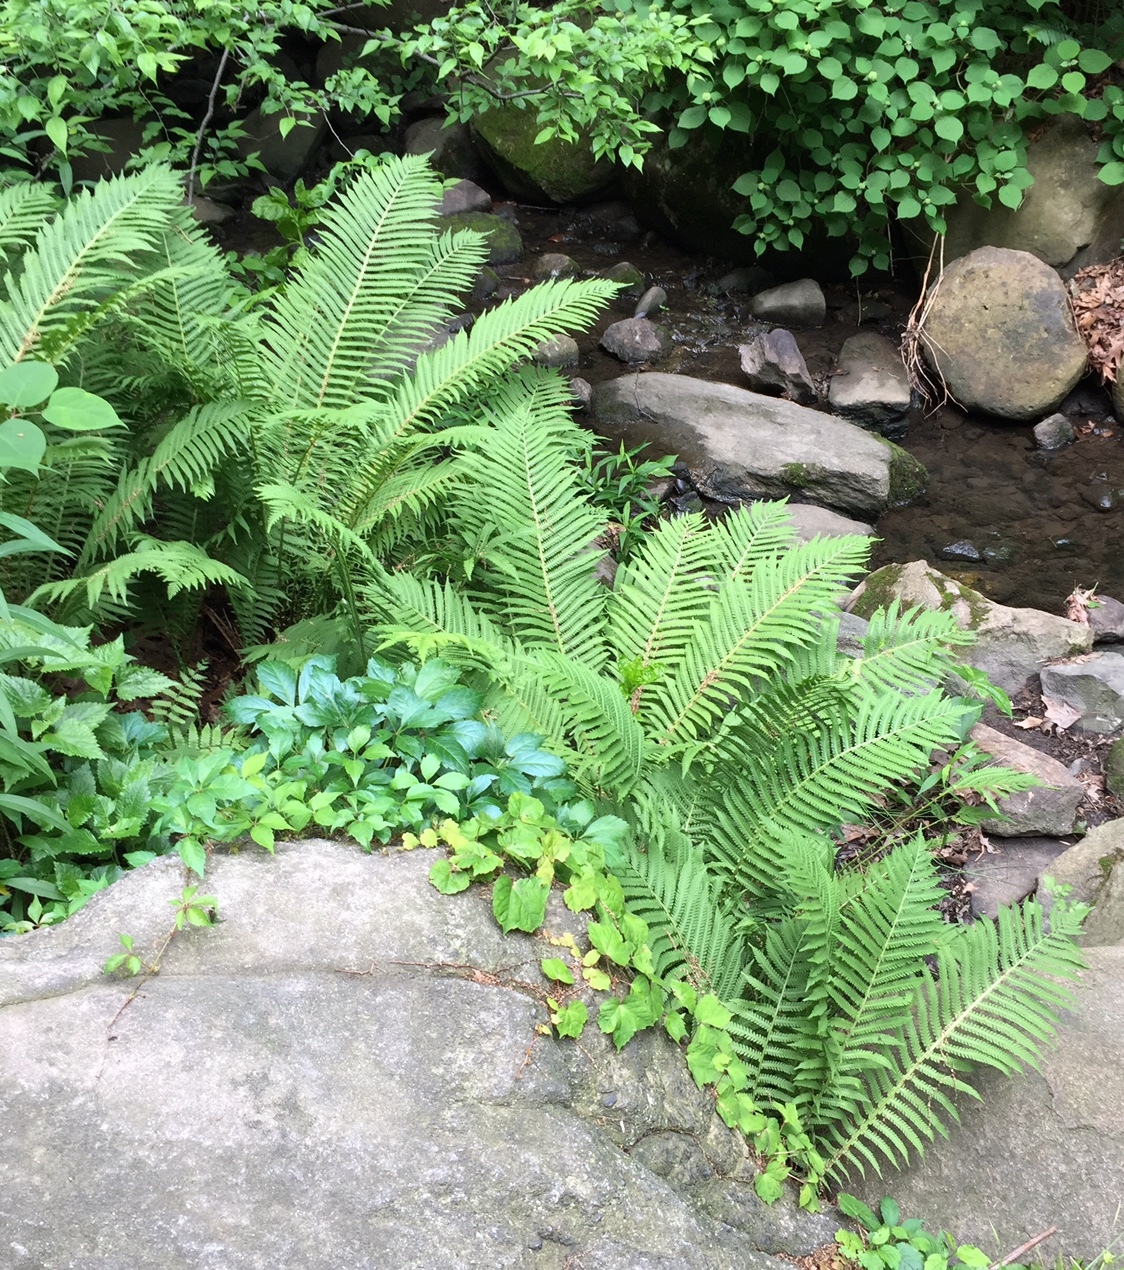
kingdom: Plantae
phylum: Tracheophyta
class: Polypodiopsida
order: Polypodiales
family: Onocleaceae
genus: Matteuccia
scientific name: Matteuccia struthiopteris
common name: Ostrich fern
